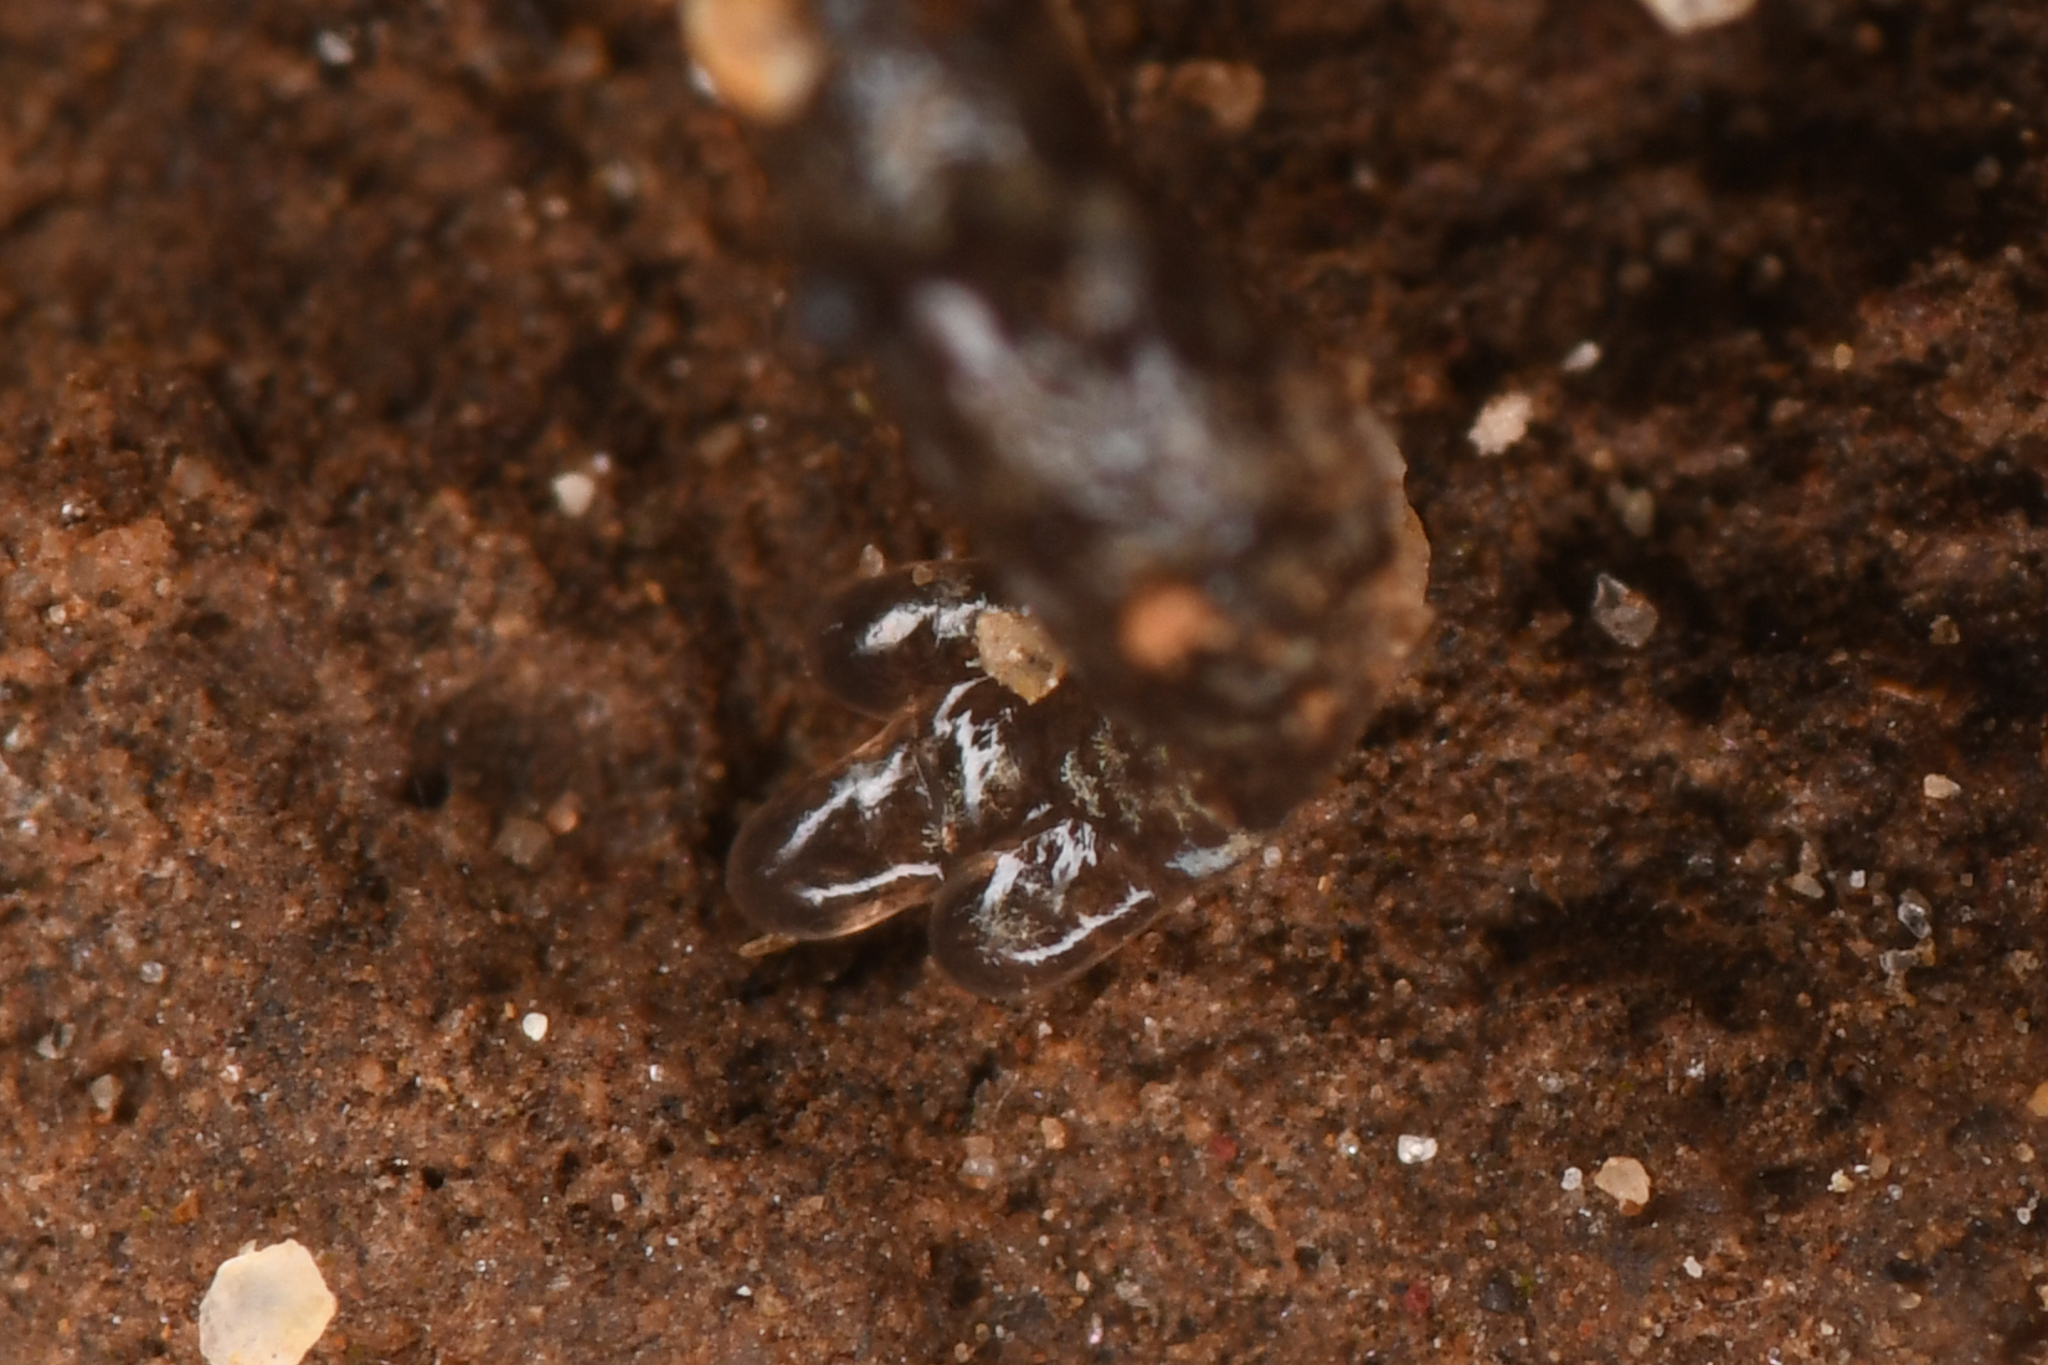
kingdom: Animalia
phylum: Chordata
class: Amphibia
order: Caudata
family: Plethodontidae
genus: Batrachoseps
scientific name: Batrachoseps minor
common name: Lesser slender salamander
